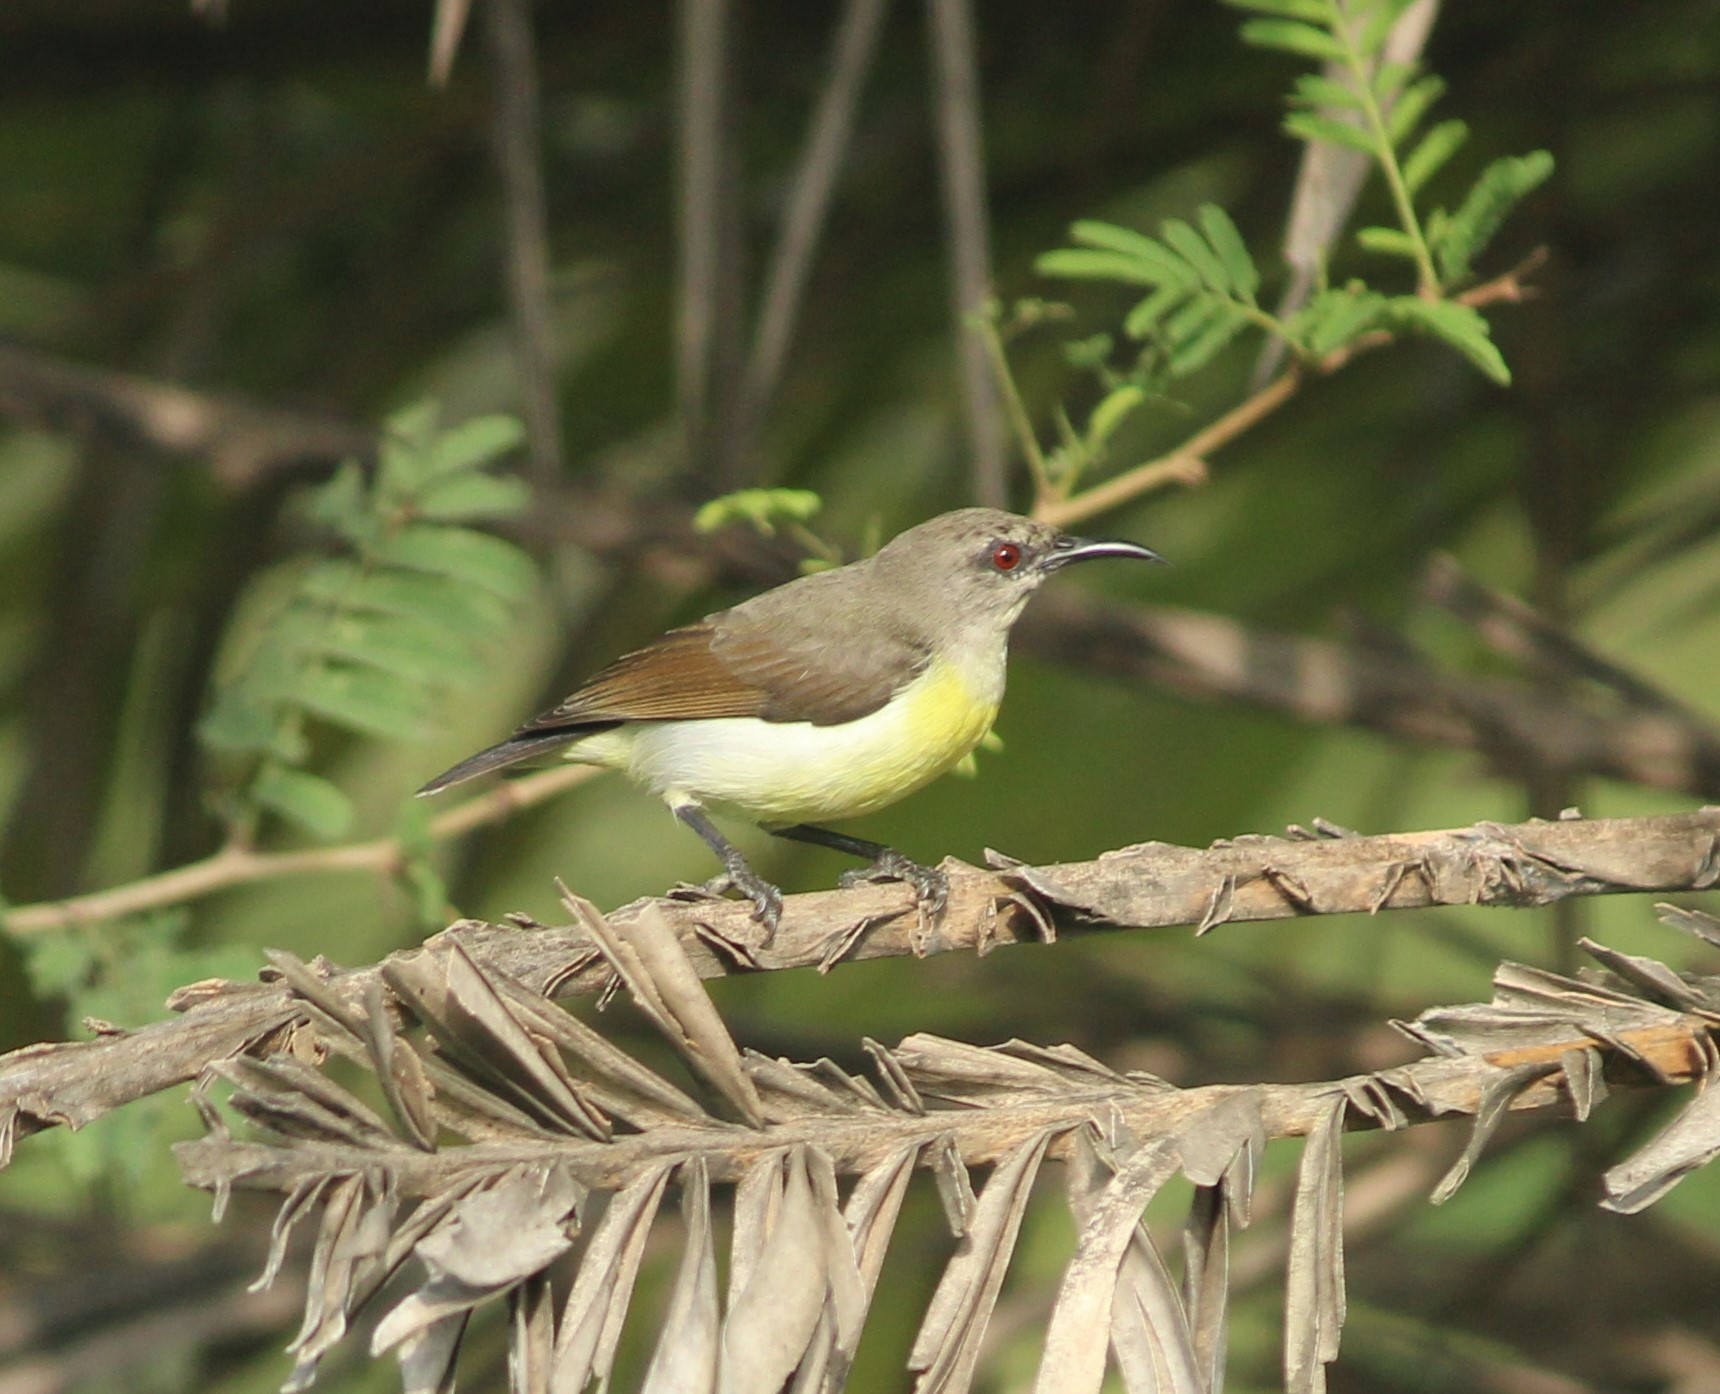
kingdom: Animalia
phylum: Chordata
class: Aves
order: Passeriformes
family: Nectariniidae
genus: Leptocoma
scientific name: Leptocoma zeylonica
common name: Purple-rumped sunbird
